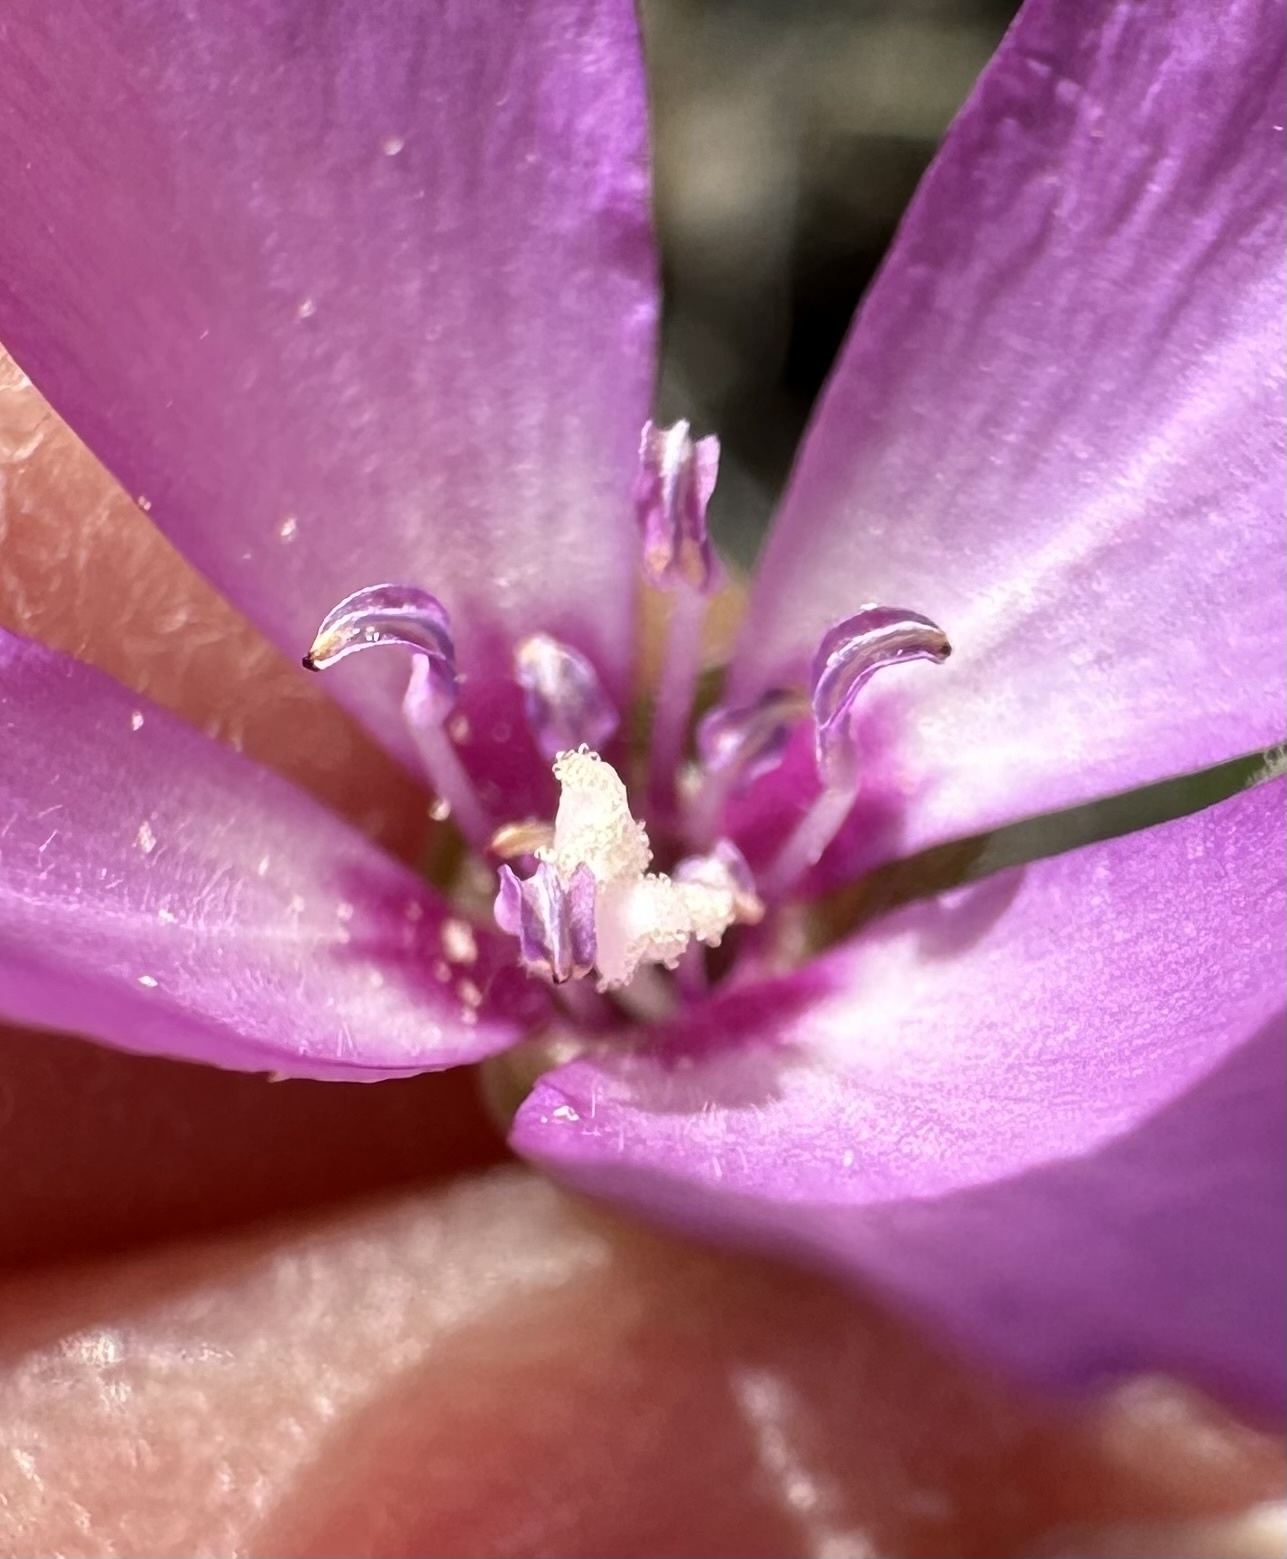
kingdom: Plantae
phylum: Tracheophyta
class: Magnoliopsida
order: Myrtales
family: Onagraceae
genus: Clarkia
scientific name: Clarkia gracilis
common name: Graceful clarkia
